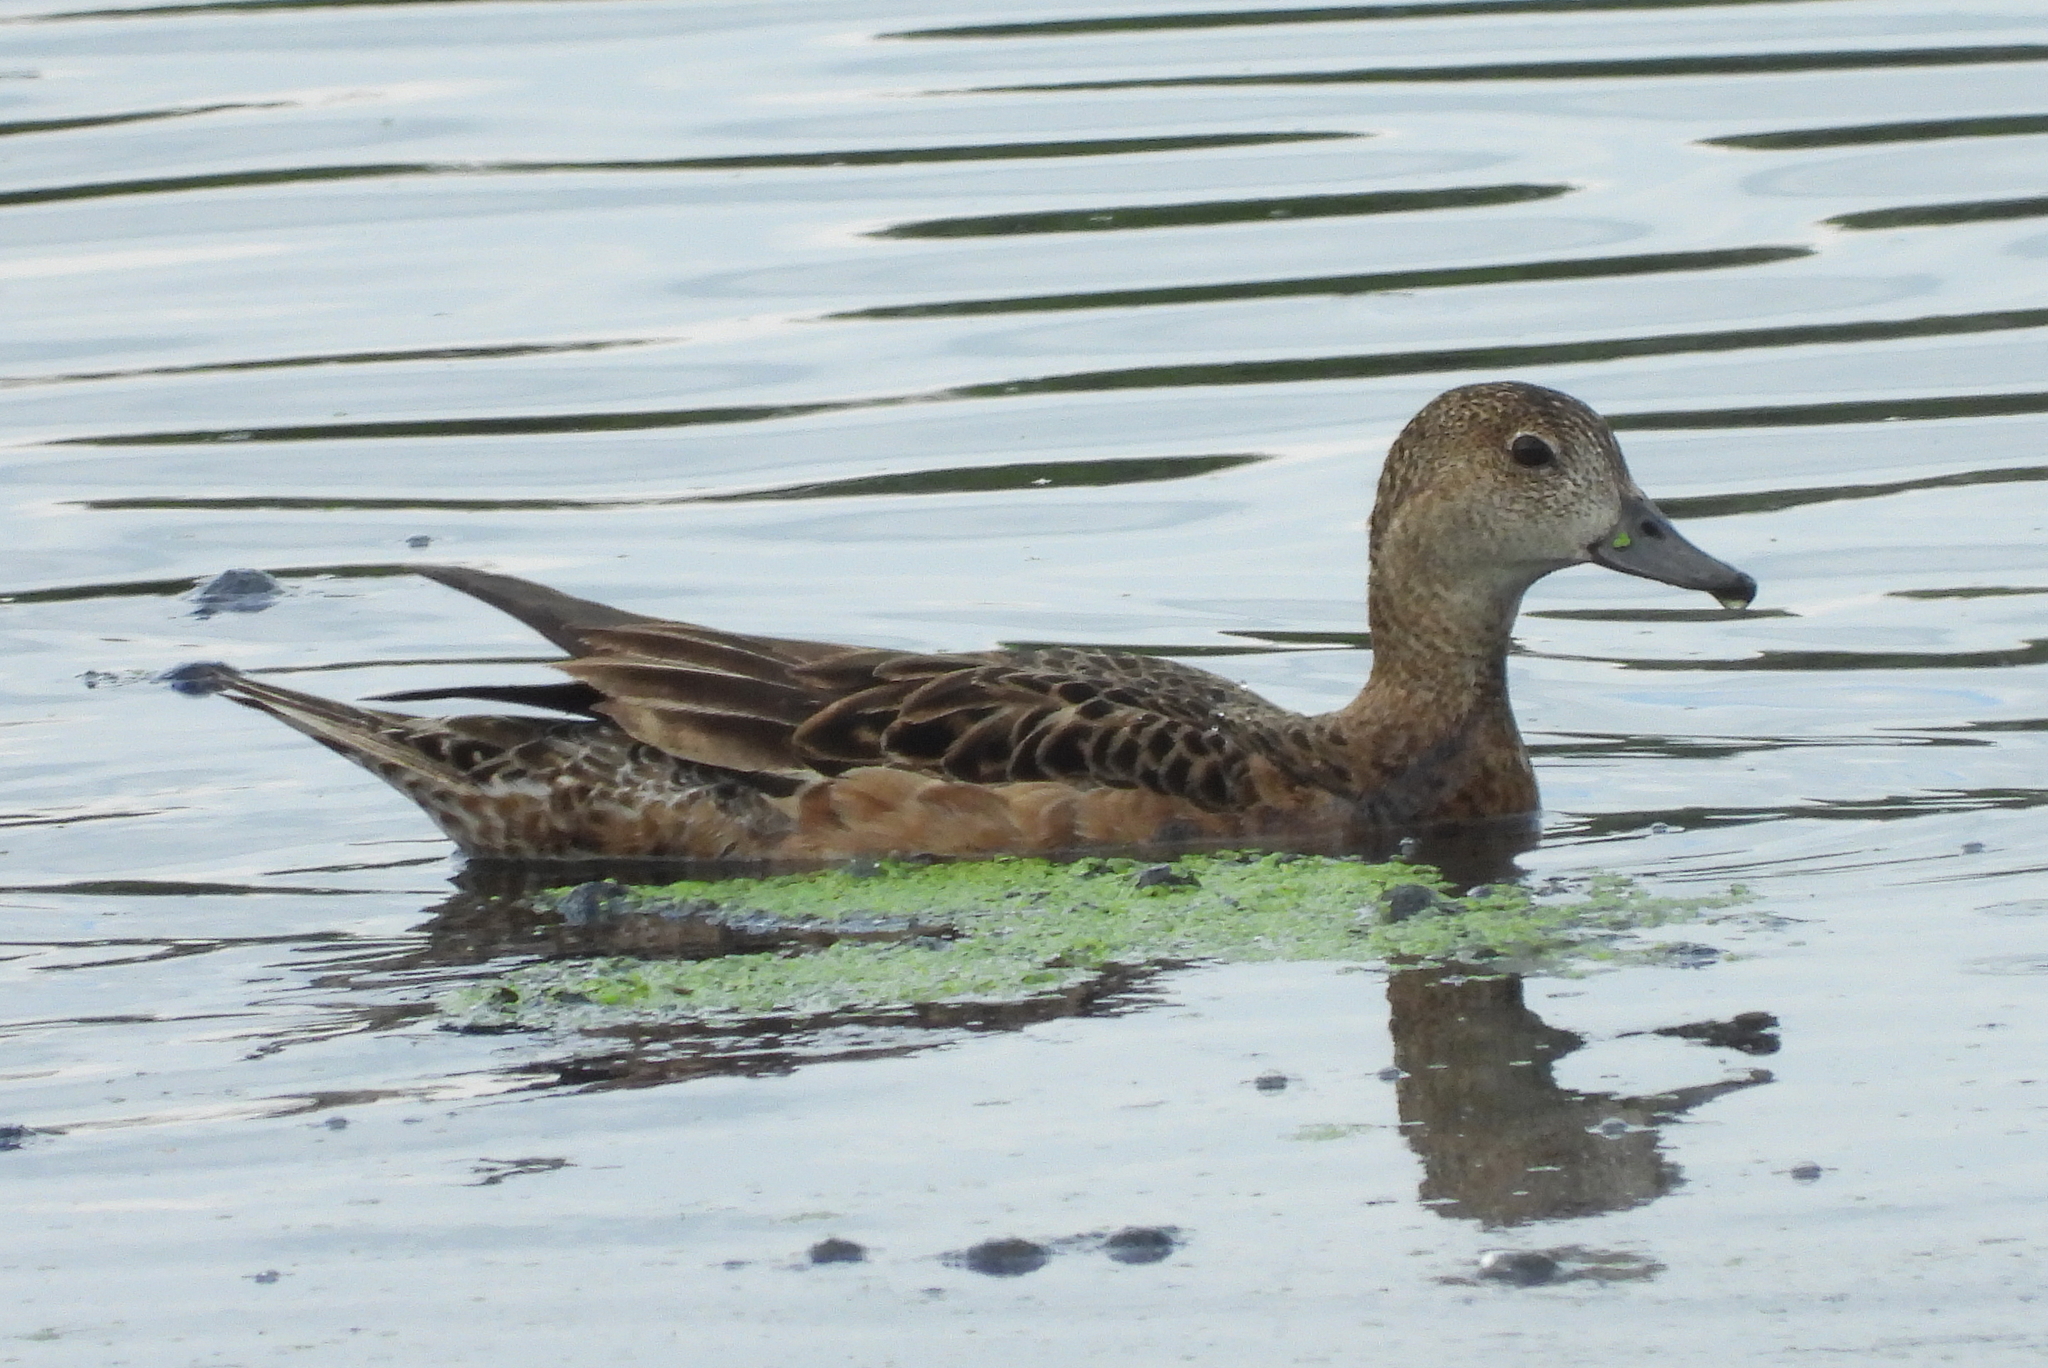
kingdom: Animalia
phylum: Chordata
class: Aves
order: Anseriformes
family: Anatidae
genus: Mareca
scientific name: Mareca strepera
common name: Gadwall
